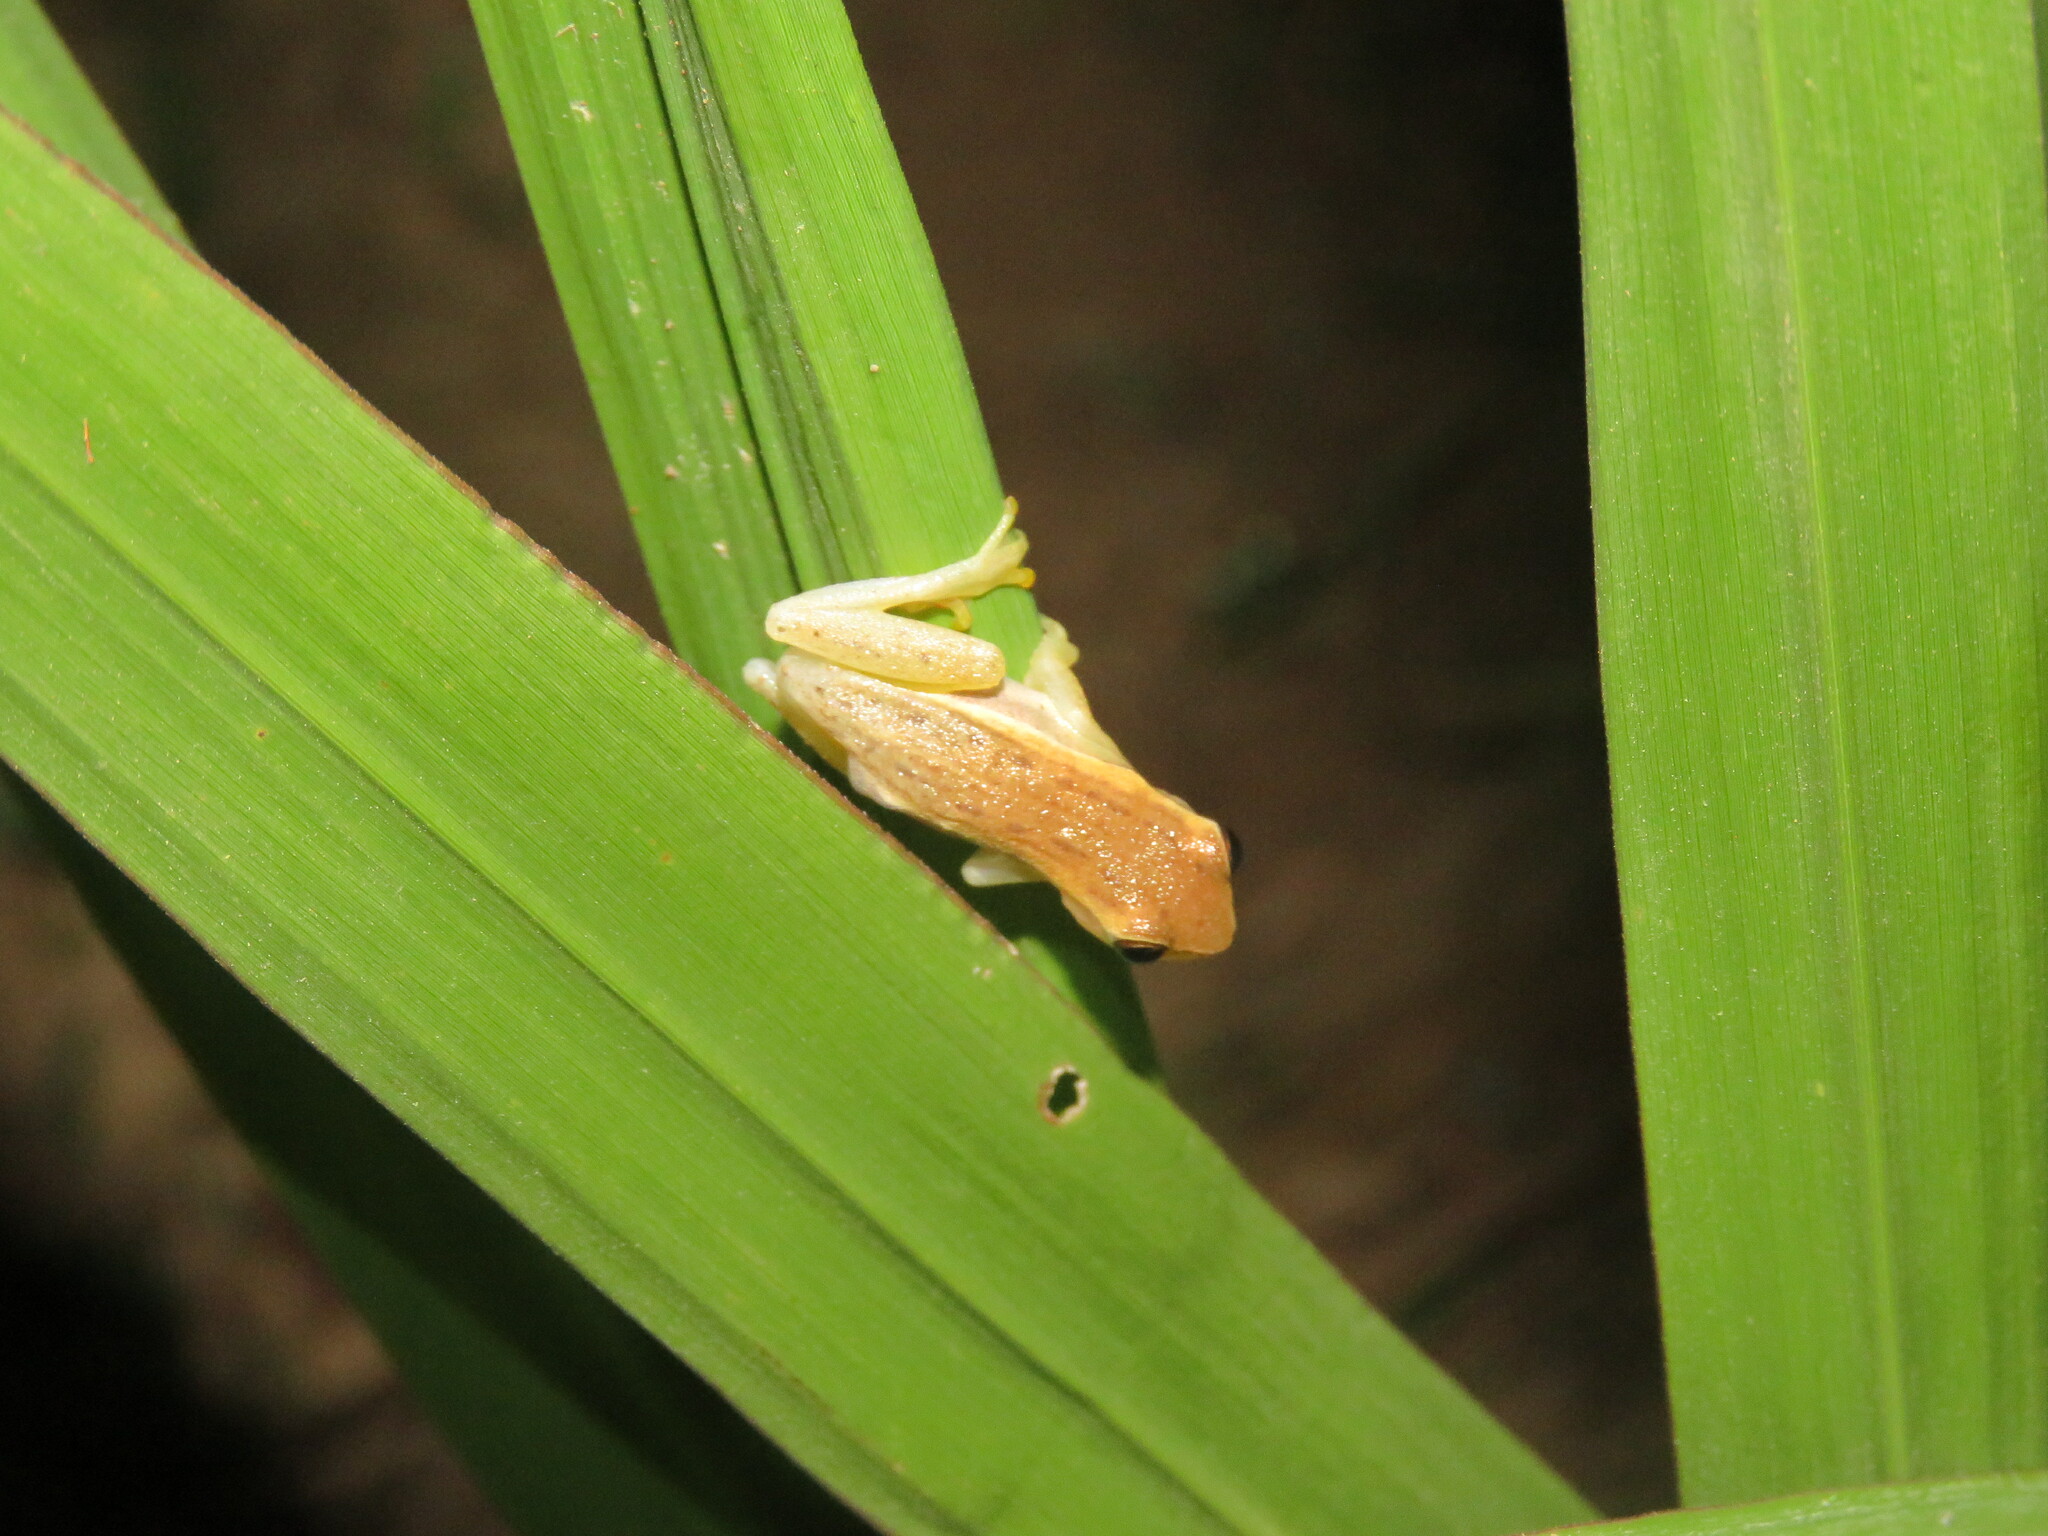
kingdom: Animalia
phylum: Chordata
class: Amphibia
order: Anura
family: Hylidae
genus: Dendropsophus
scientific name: Dendropsophus walfordi
